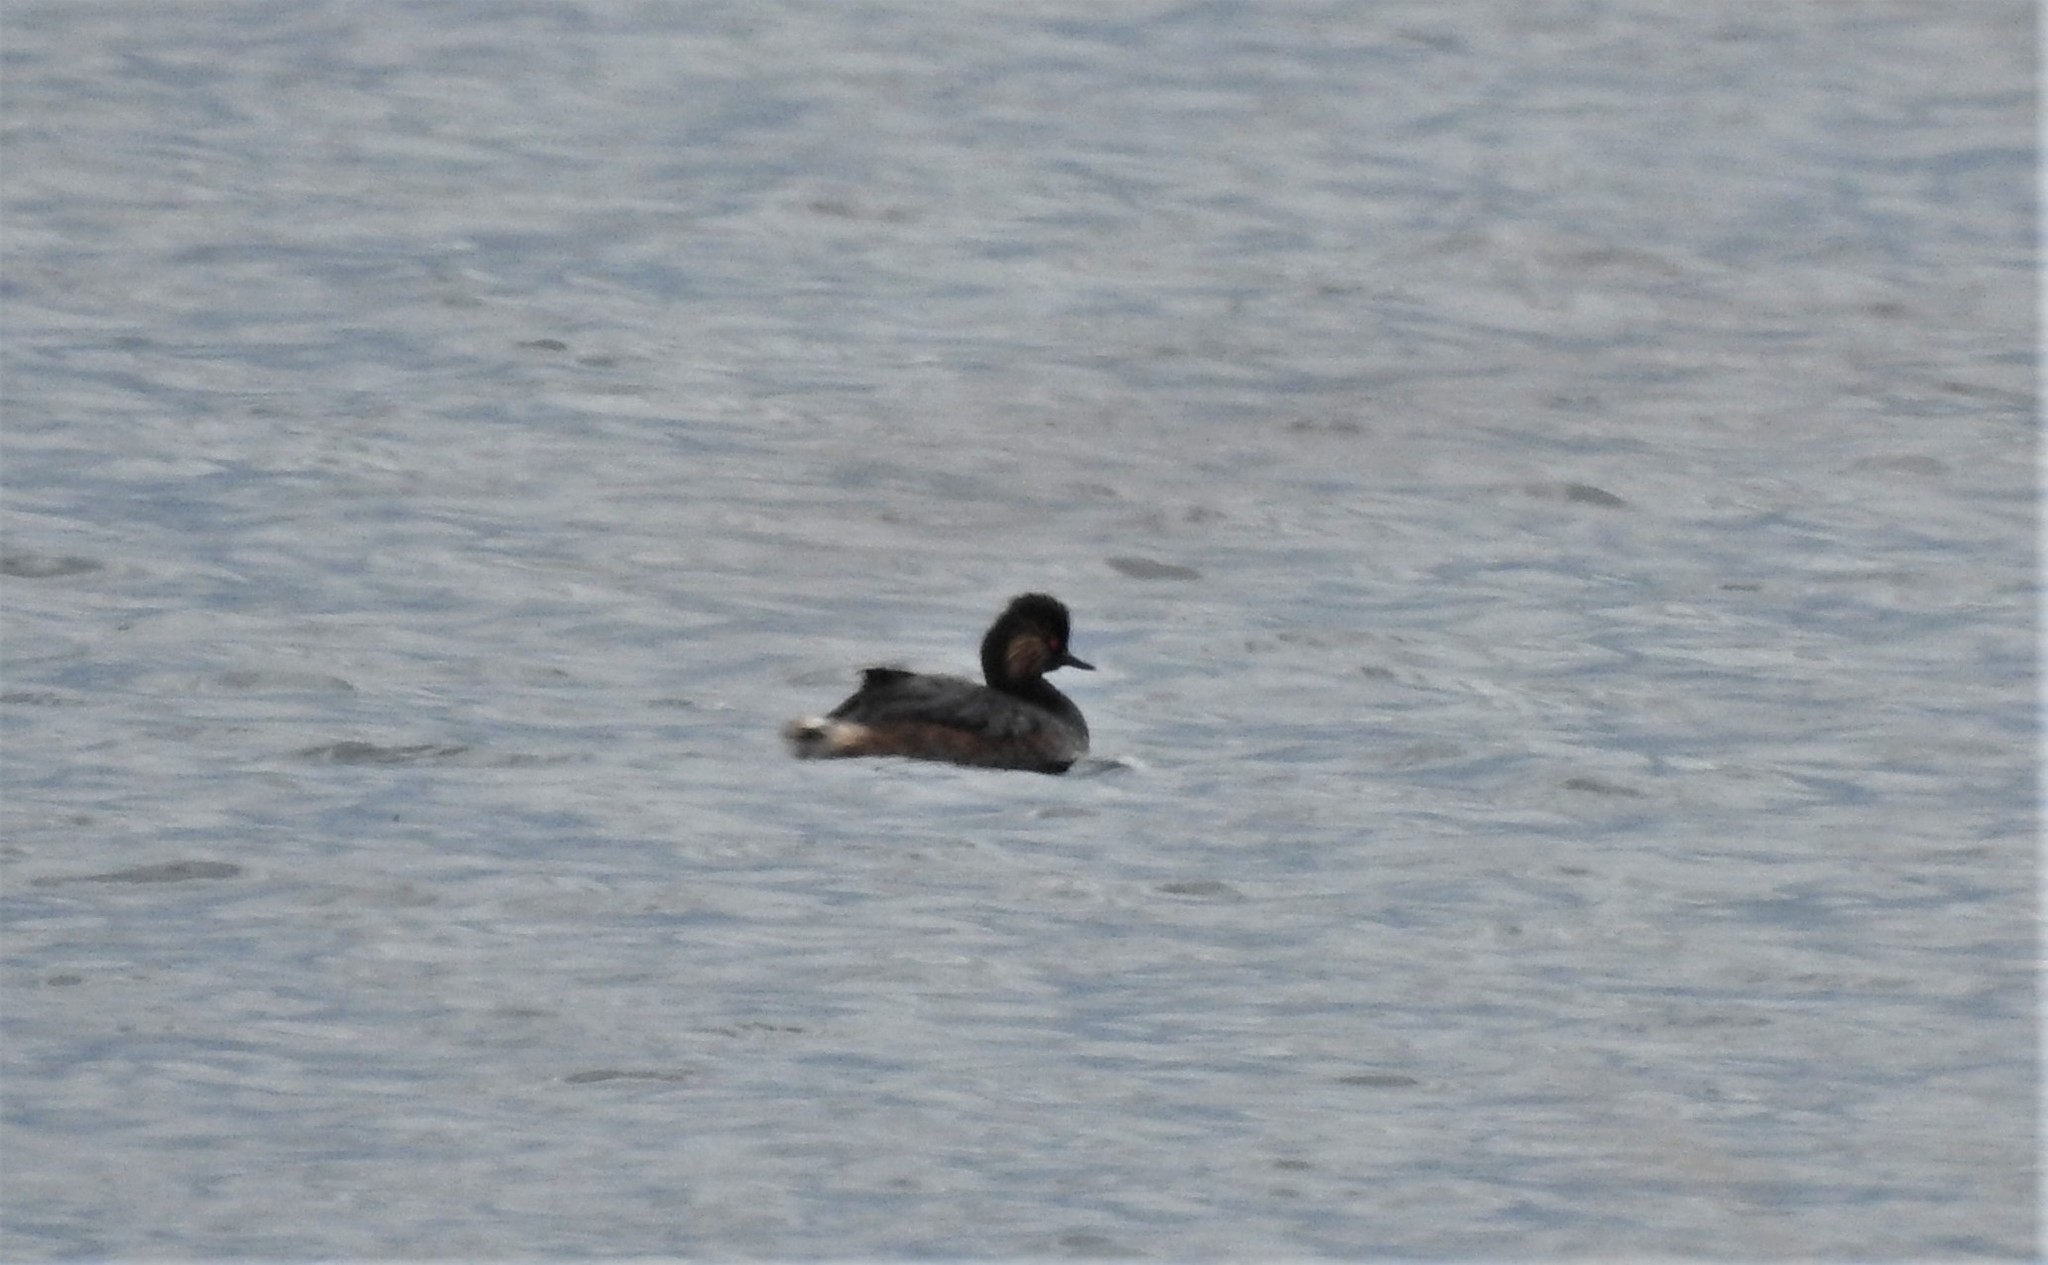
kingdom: Animalia
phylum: Chordata
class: Aves
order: Podicipediformes
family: Podicipedidae
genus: Podiceps
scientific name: Podiceps nigricollis
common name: Black-necked grebe
